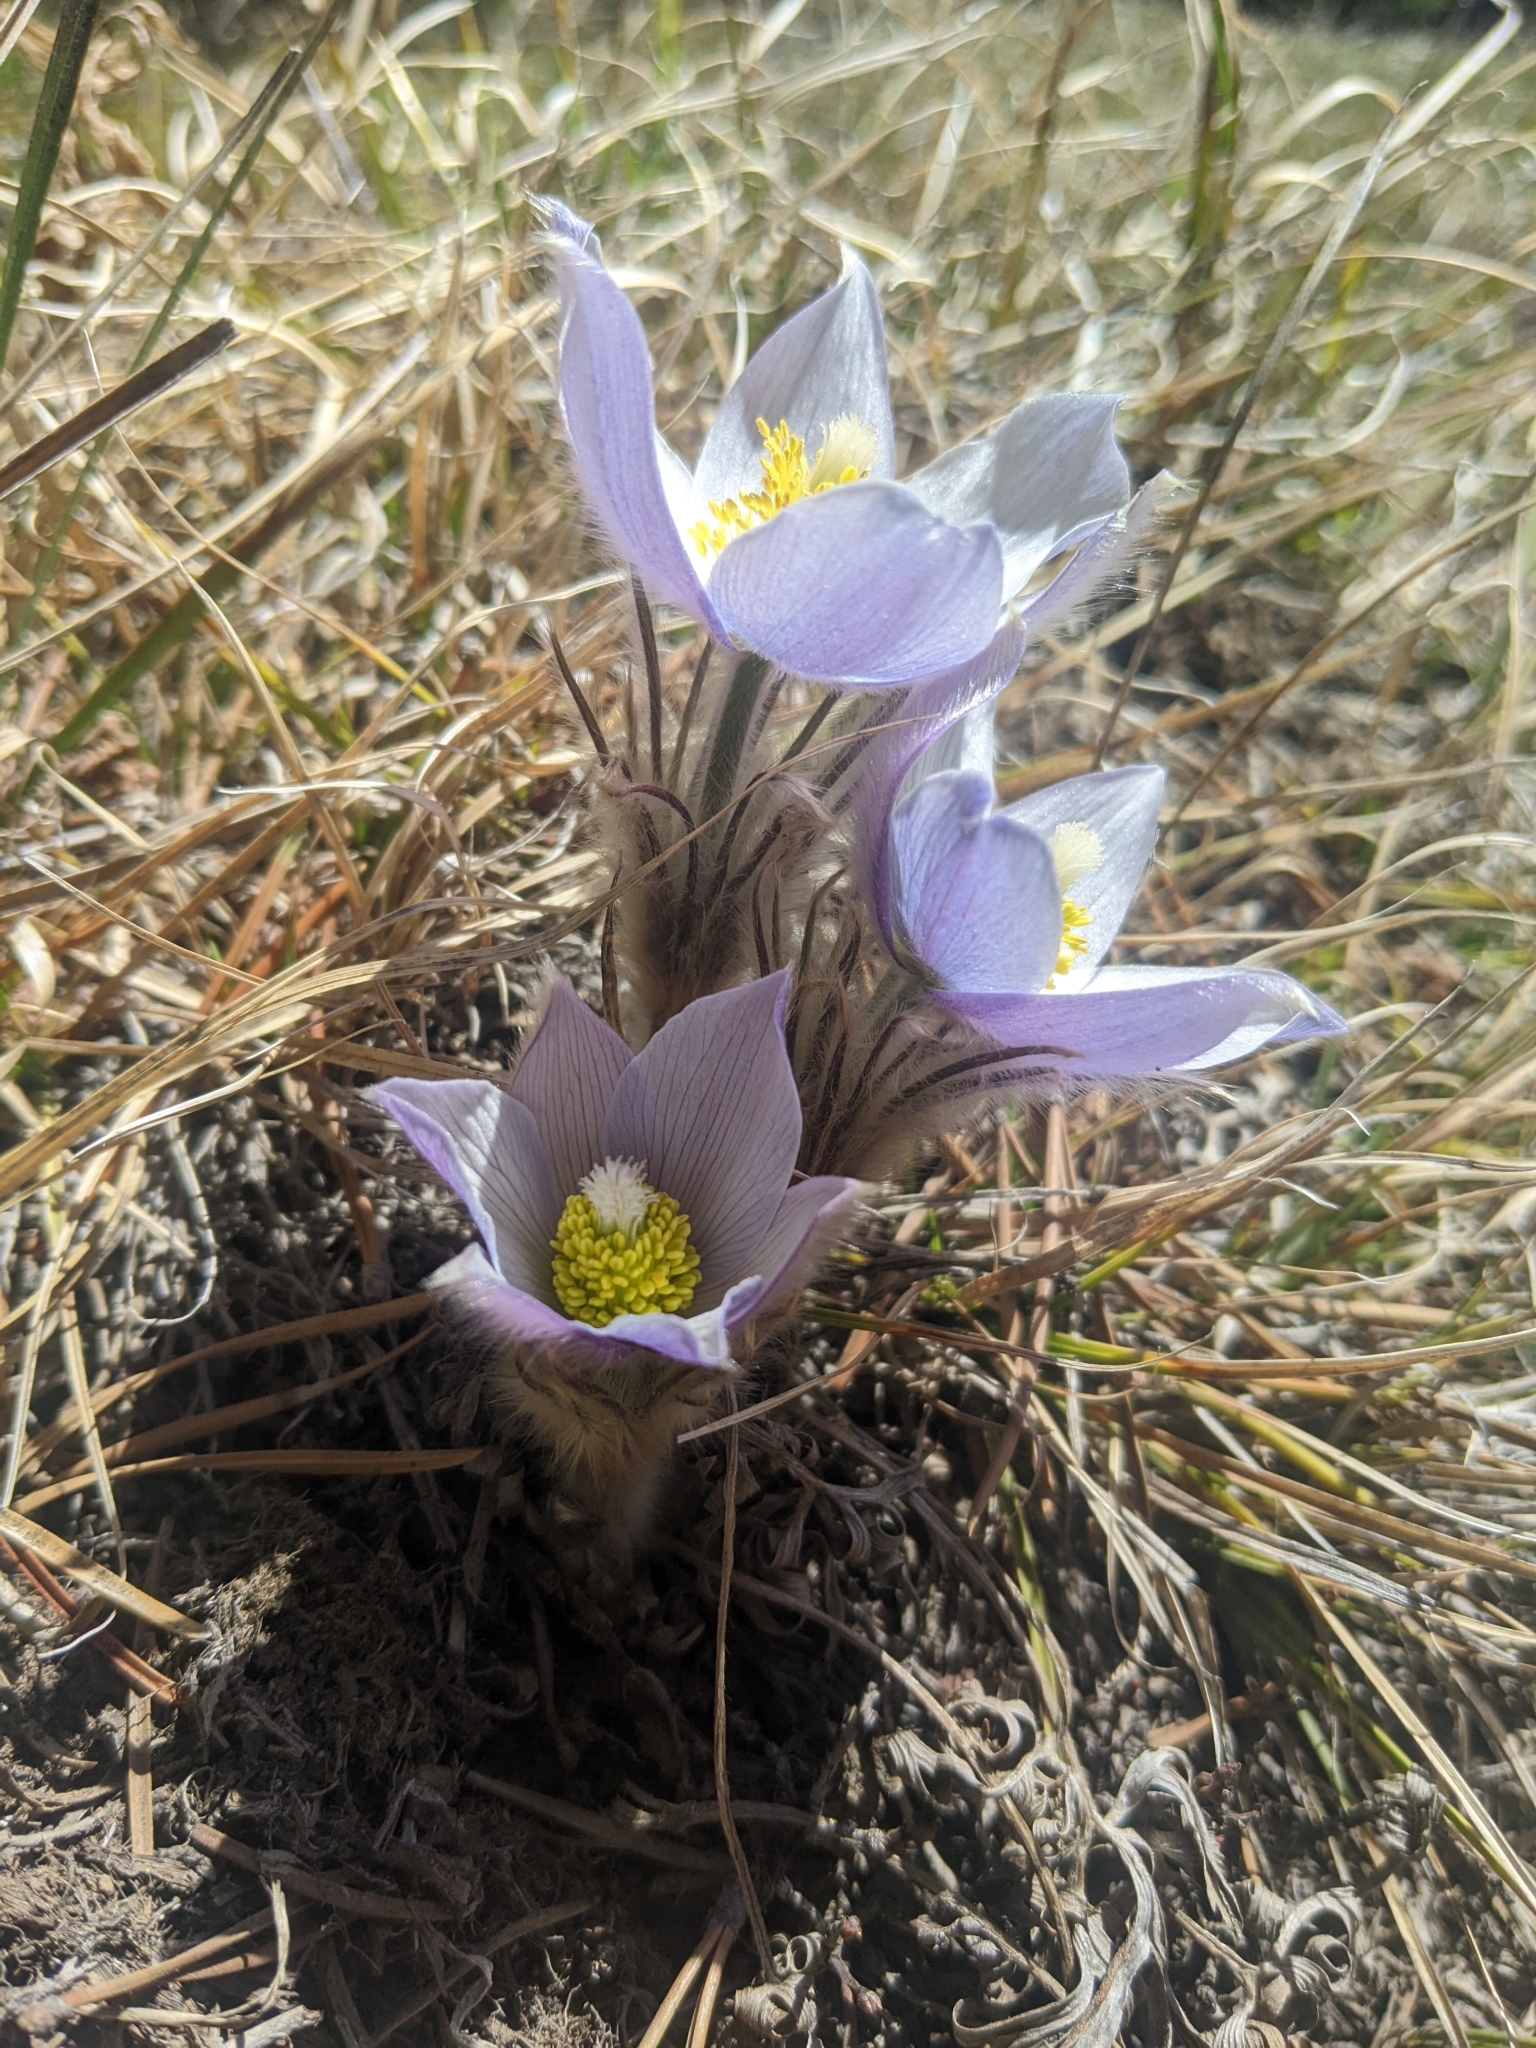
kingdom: Plantae
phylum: Tracheophyta
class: Magnoliopsida
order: Ranunculales
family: Ranunculaceae
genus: Pulsatilla
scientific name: Pulsatilla nuttalliana
